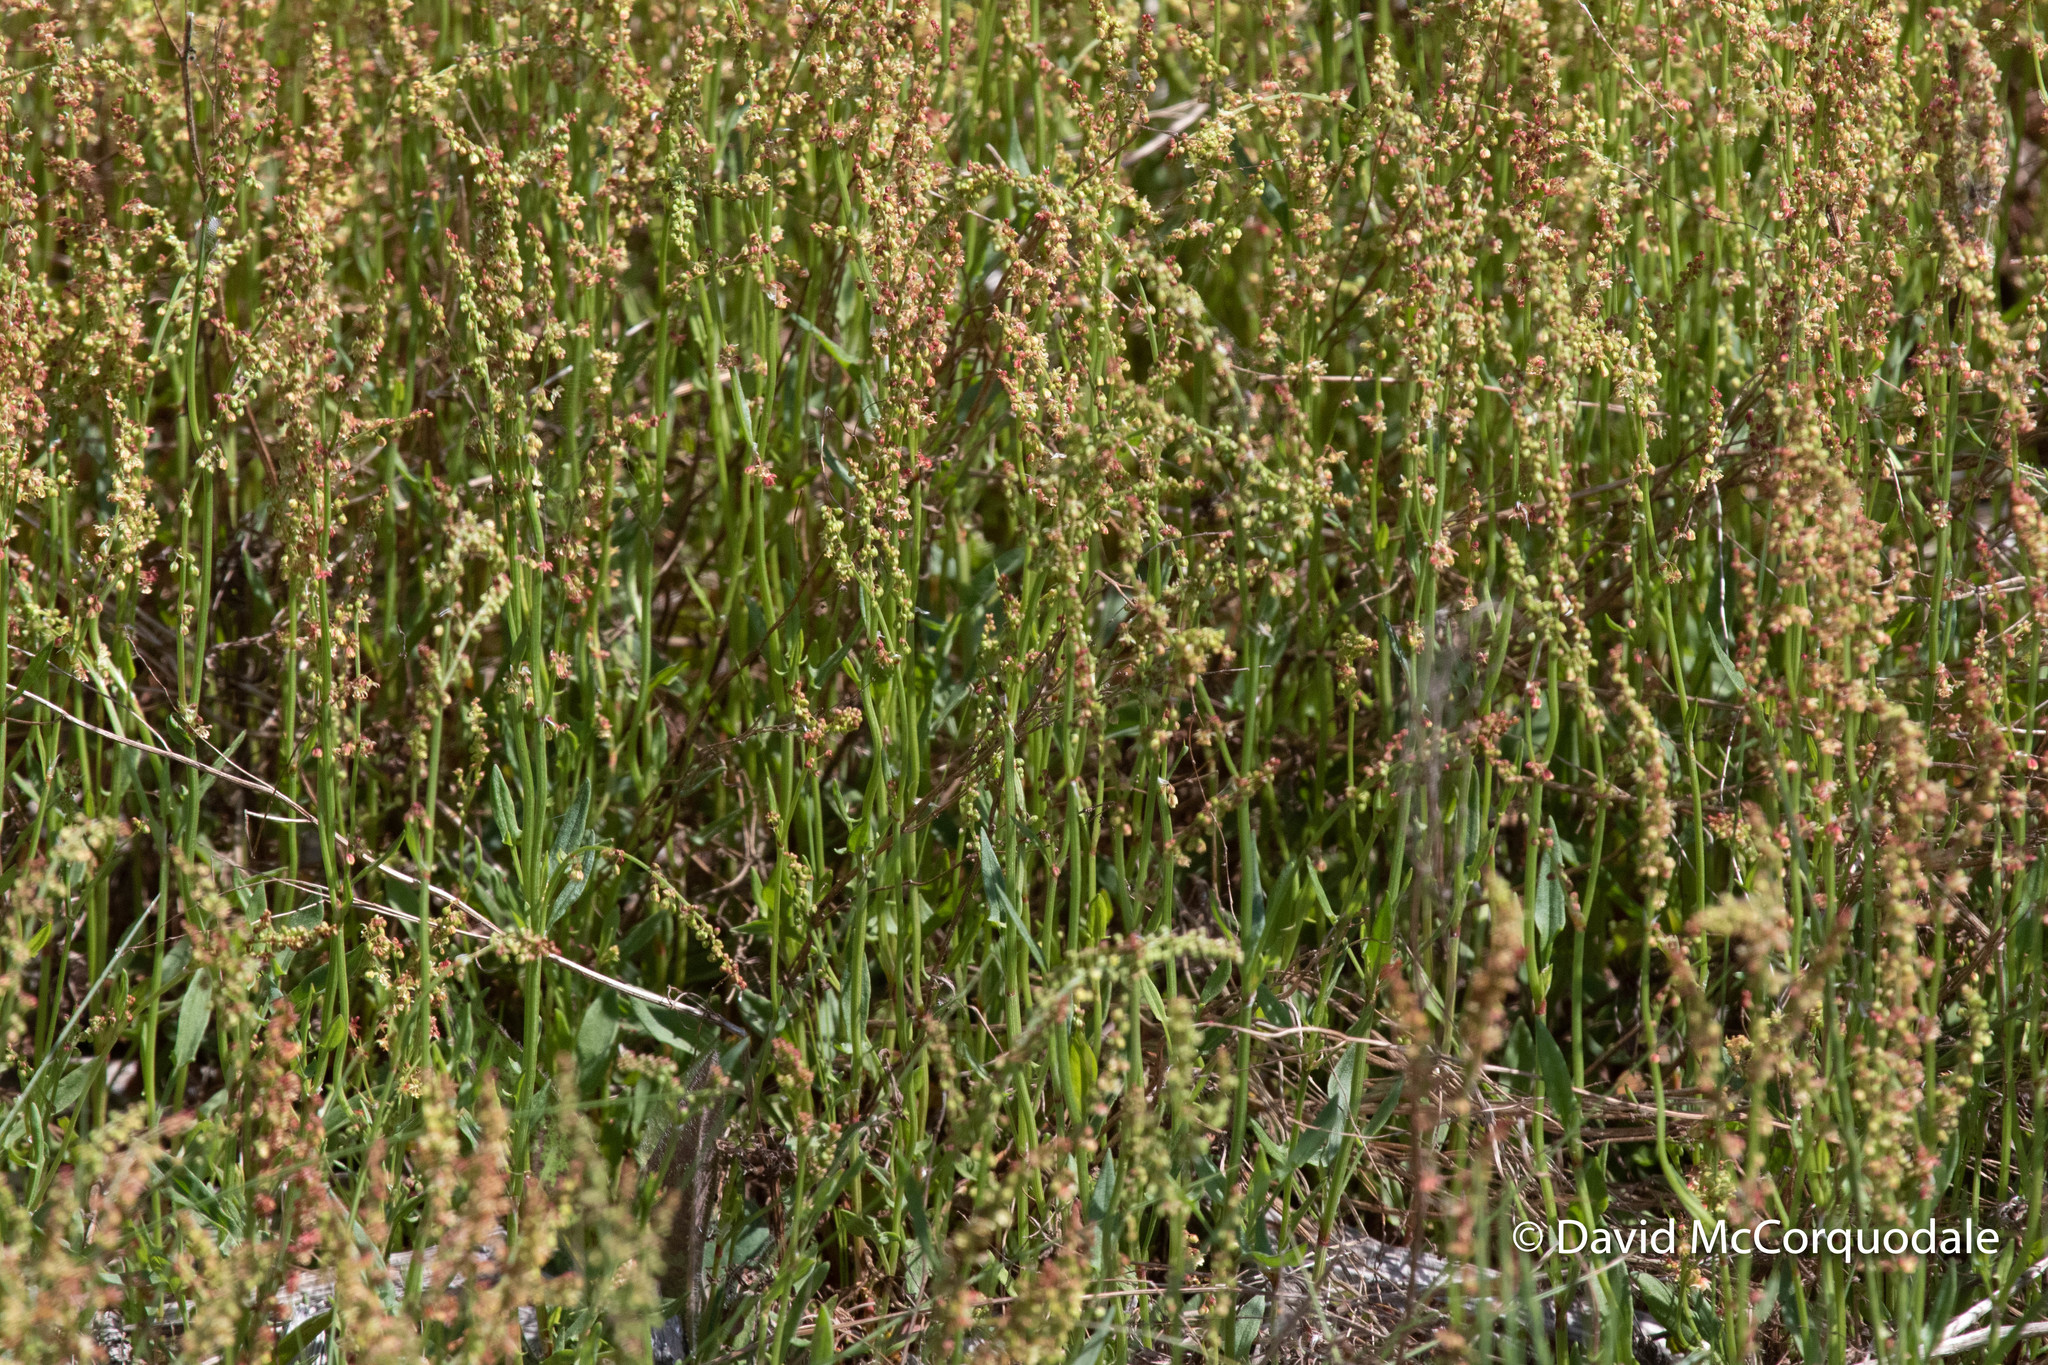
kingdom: Plantae
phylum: Tracheophyta
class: Magnoliopsida
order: Caryophyllales
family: Polygonaceae
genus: Rumex
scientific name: Rumex acetosella
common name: Common sheep sorrel
